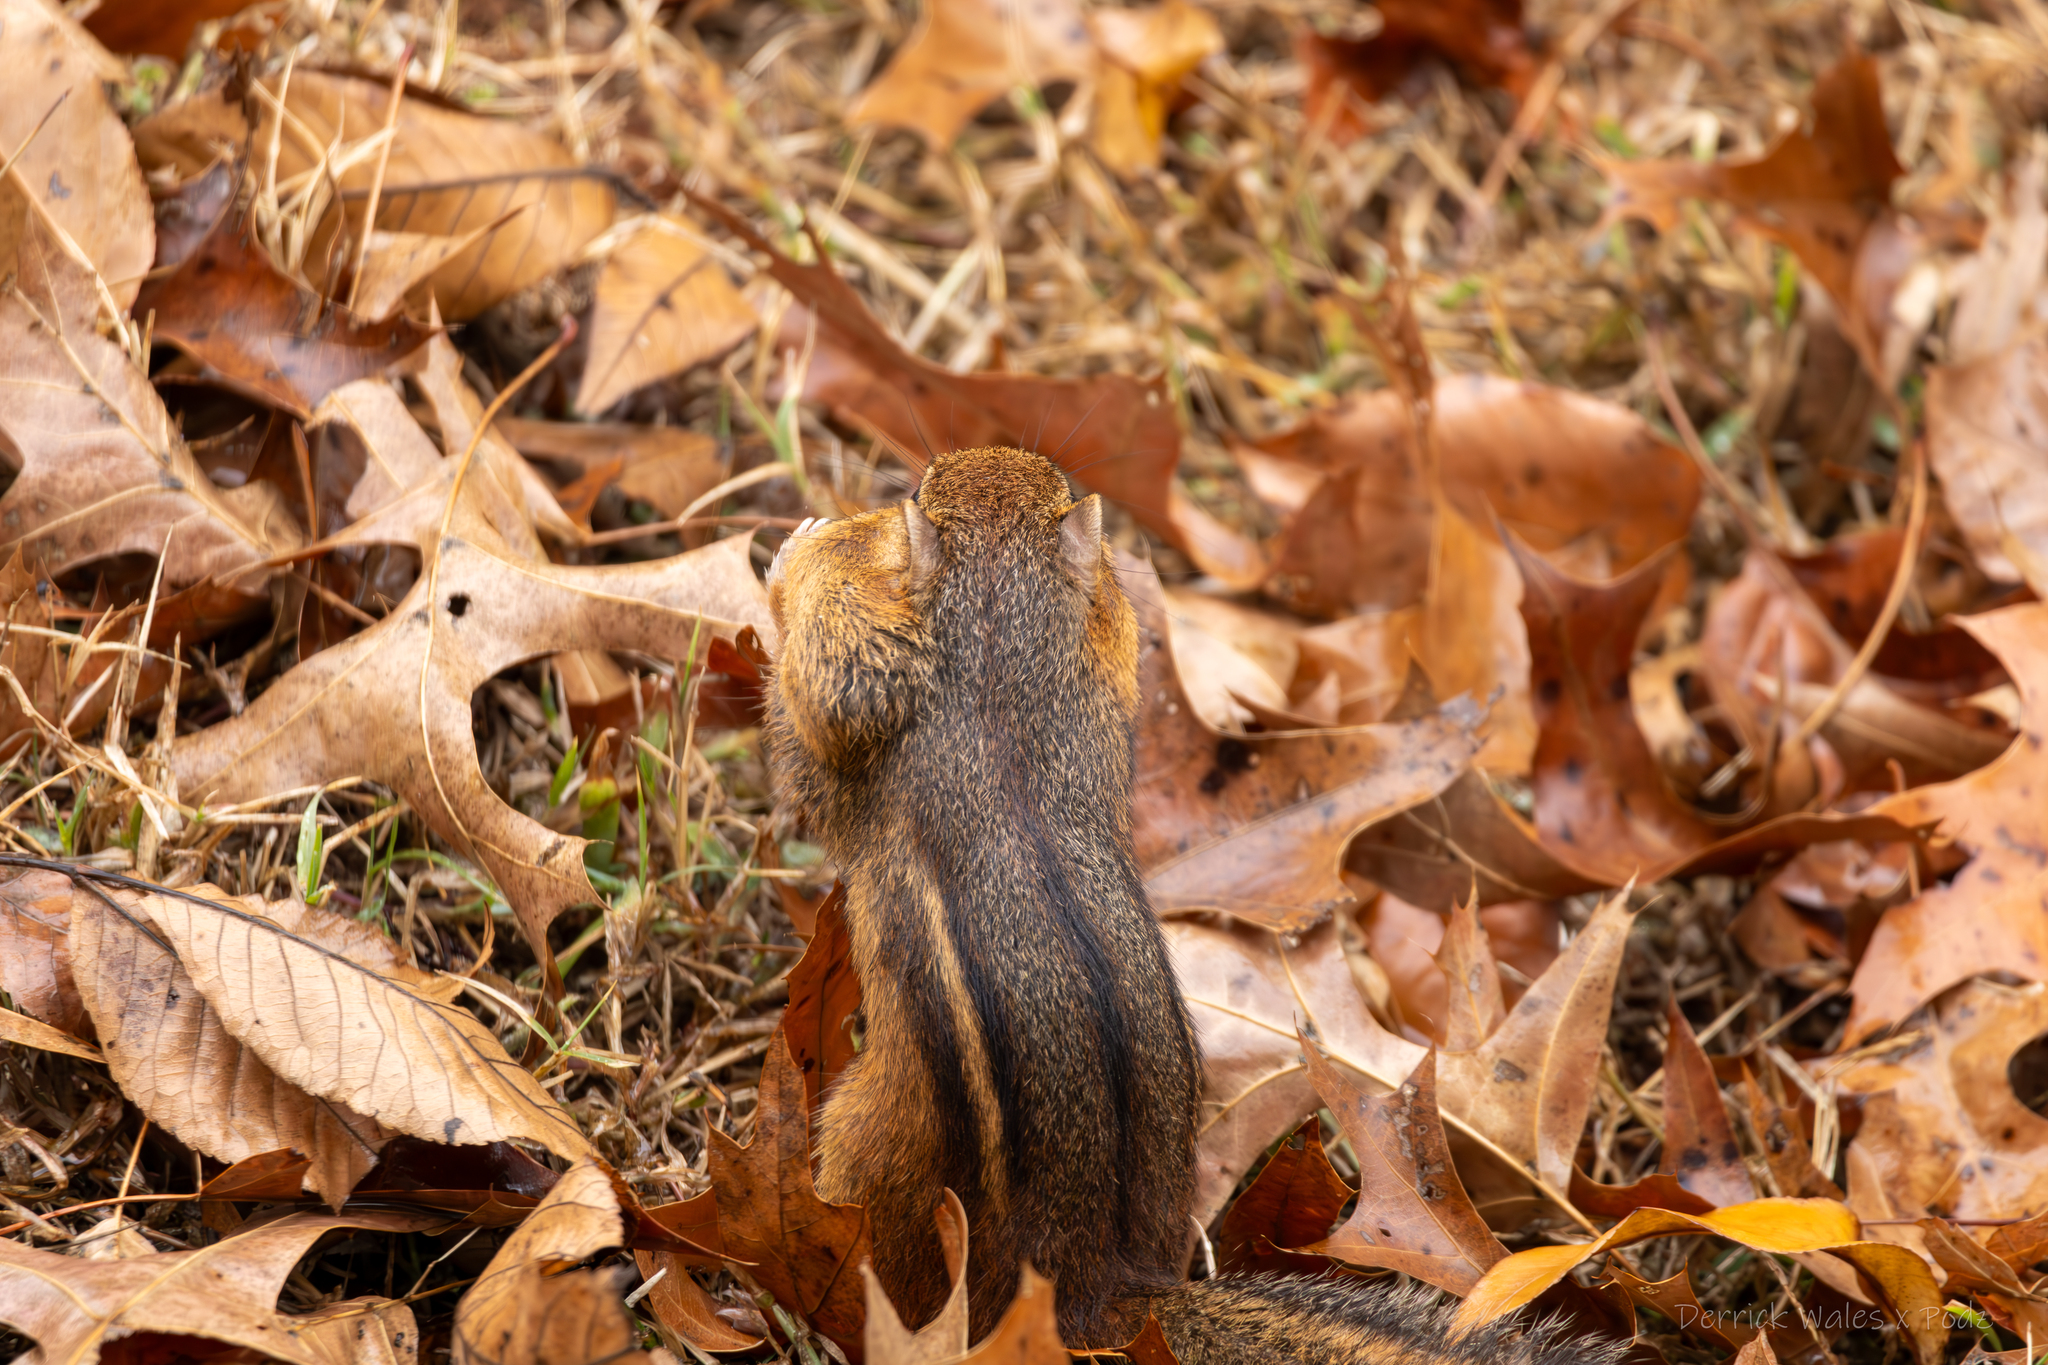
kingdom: Animalia
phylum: Chordata
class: Mammalia
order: Rodentia
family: Sciuridae
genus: Tamias
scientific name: Tamias striatus
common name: Eastern chipmunk
